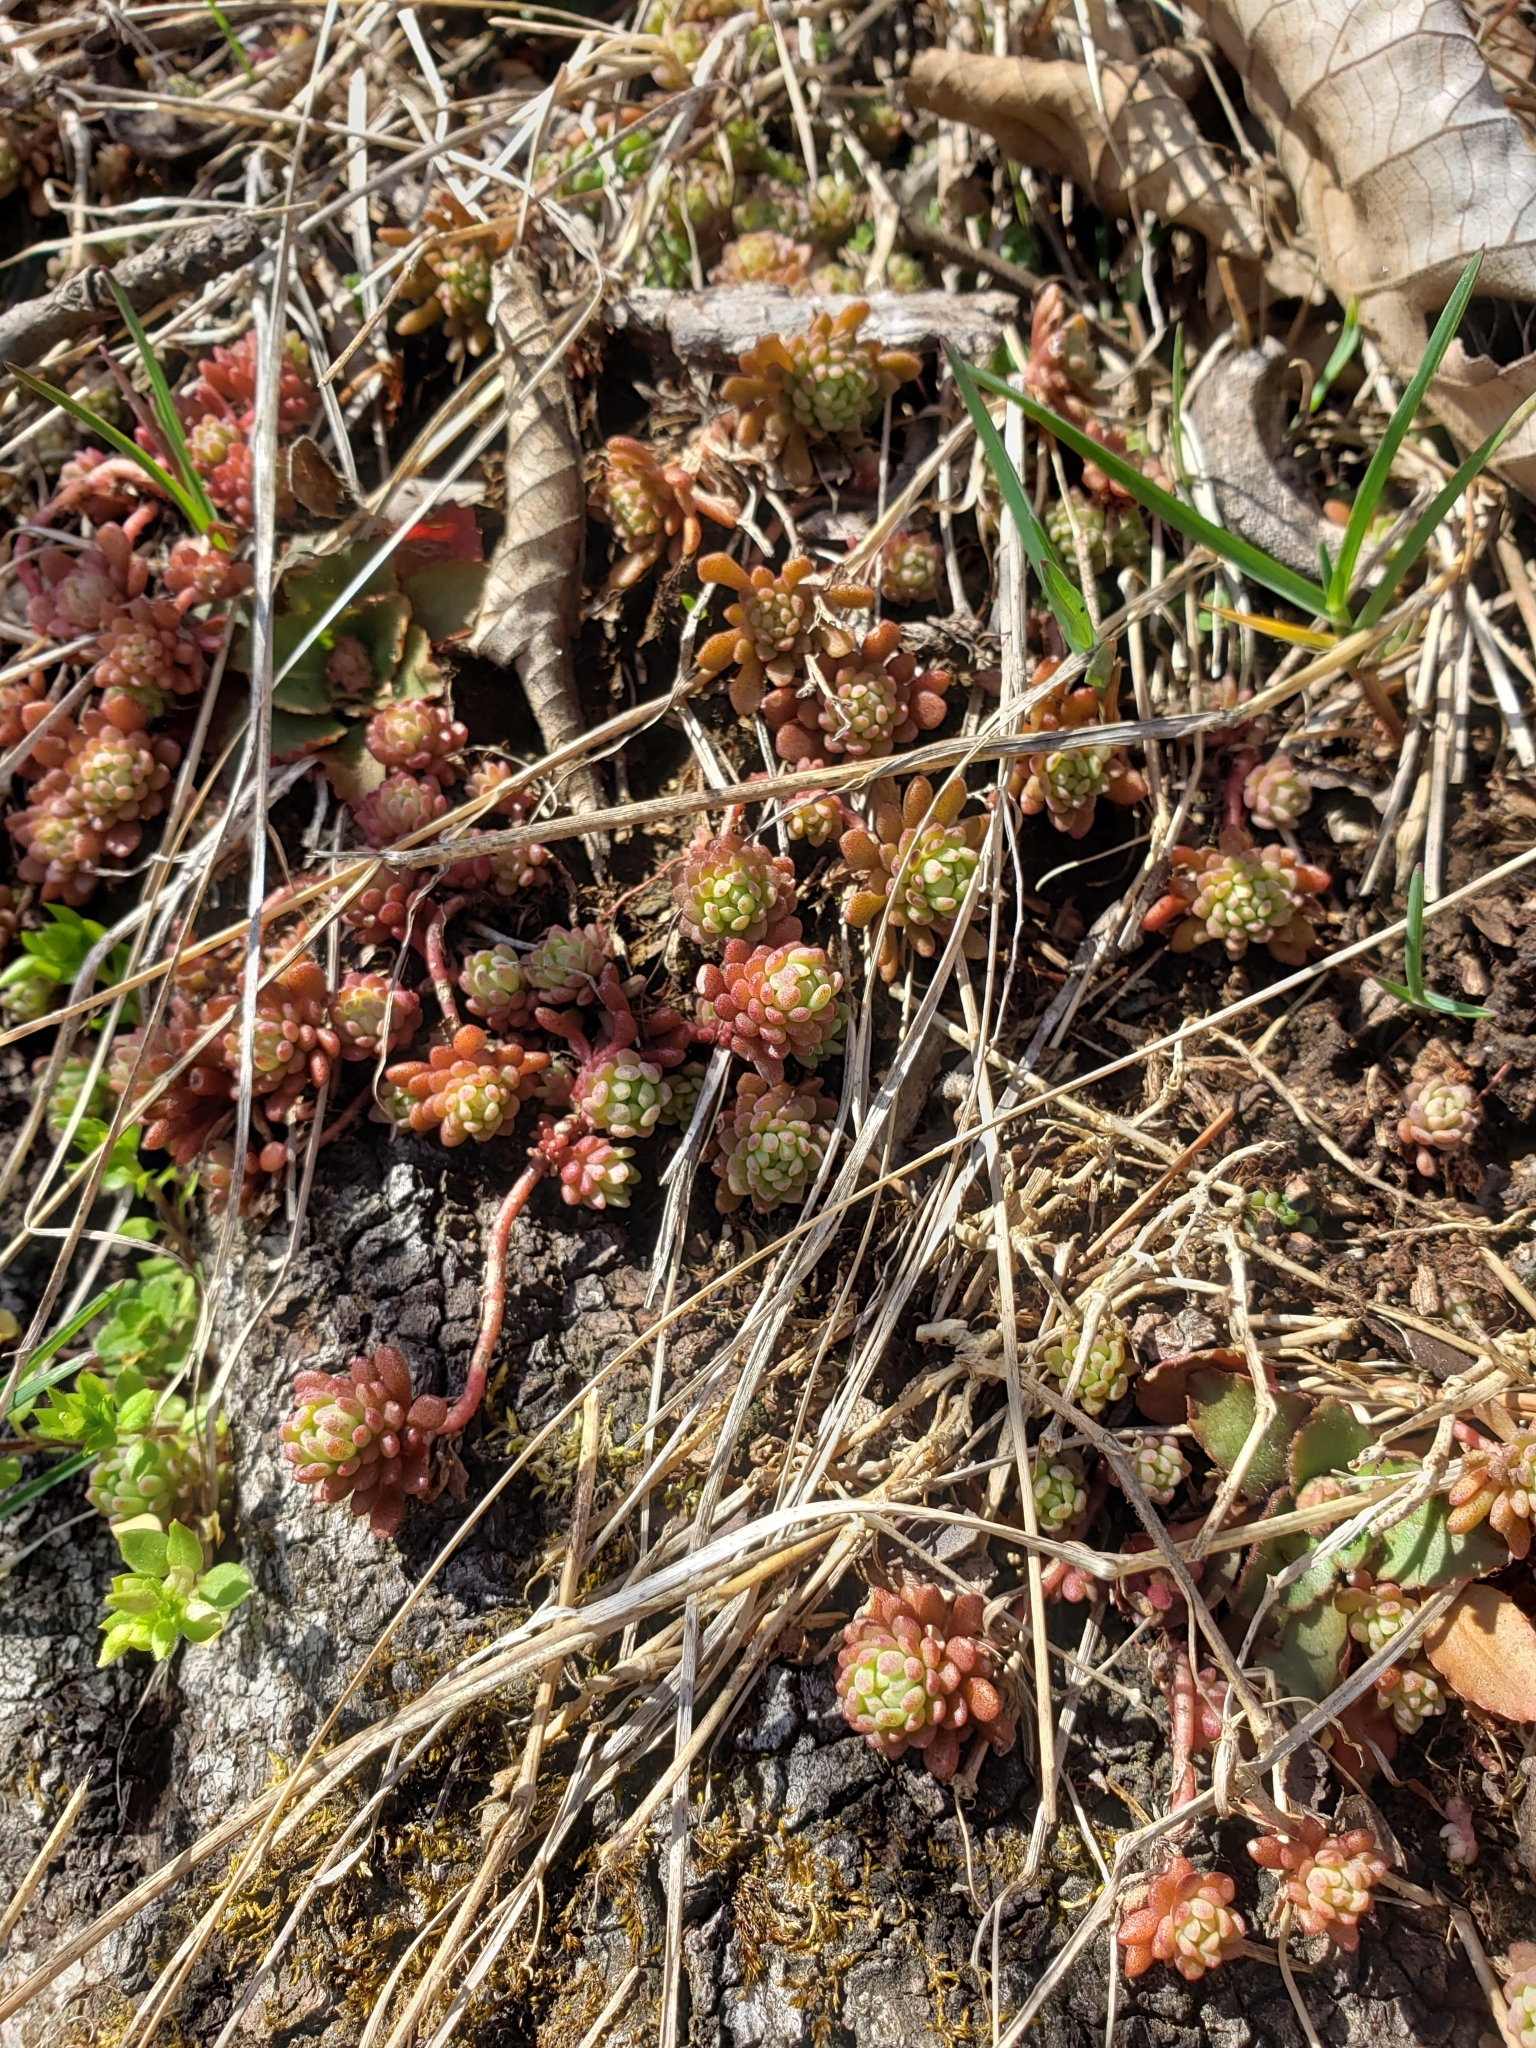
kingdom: Plantae
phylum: Tracheophyta
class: Magnoliopsida
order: Saxifragales
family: Crassulaceae
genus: Sedum
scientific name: Sedum glaucophyllum
